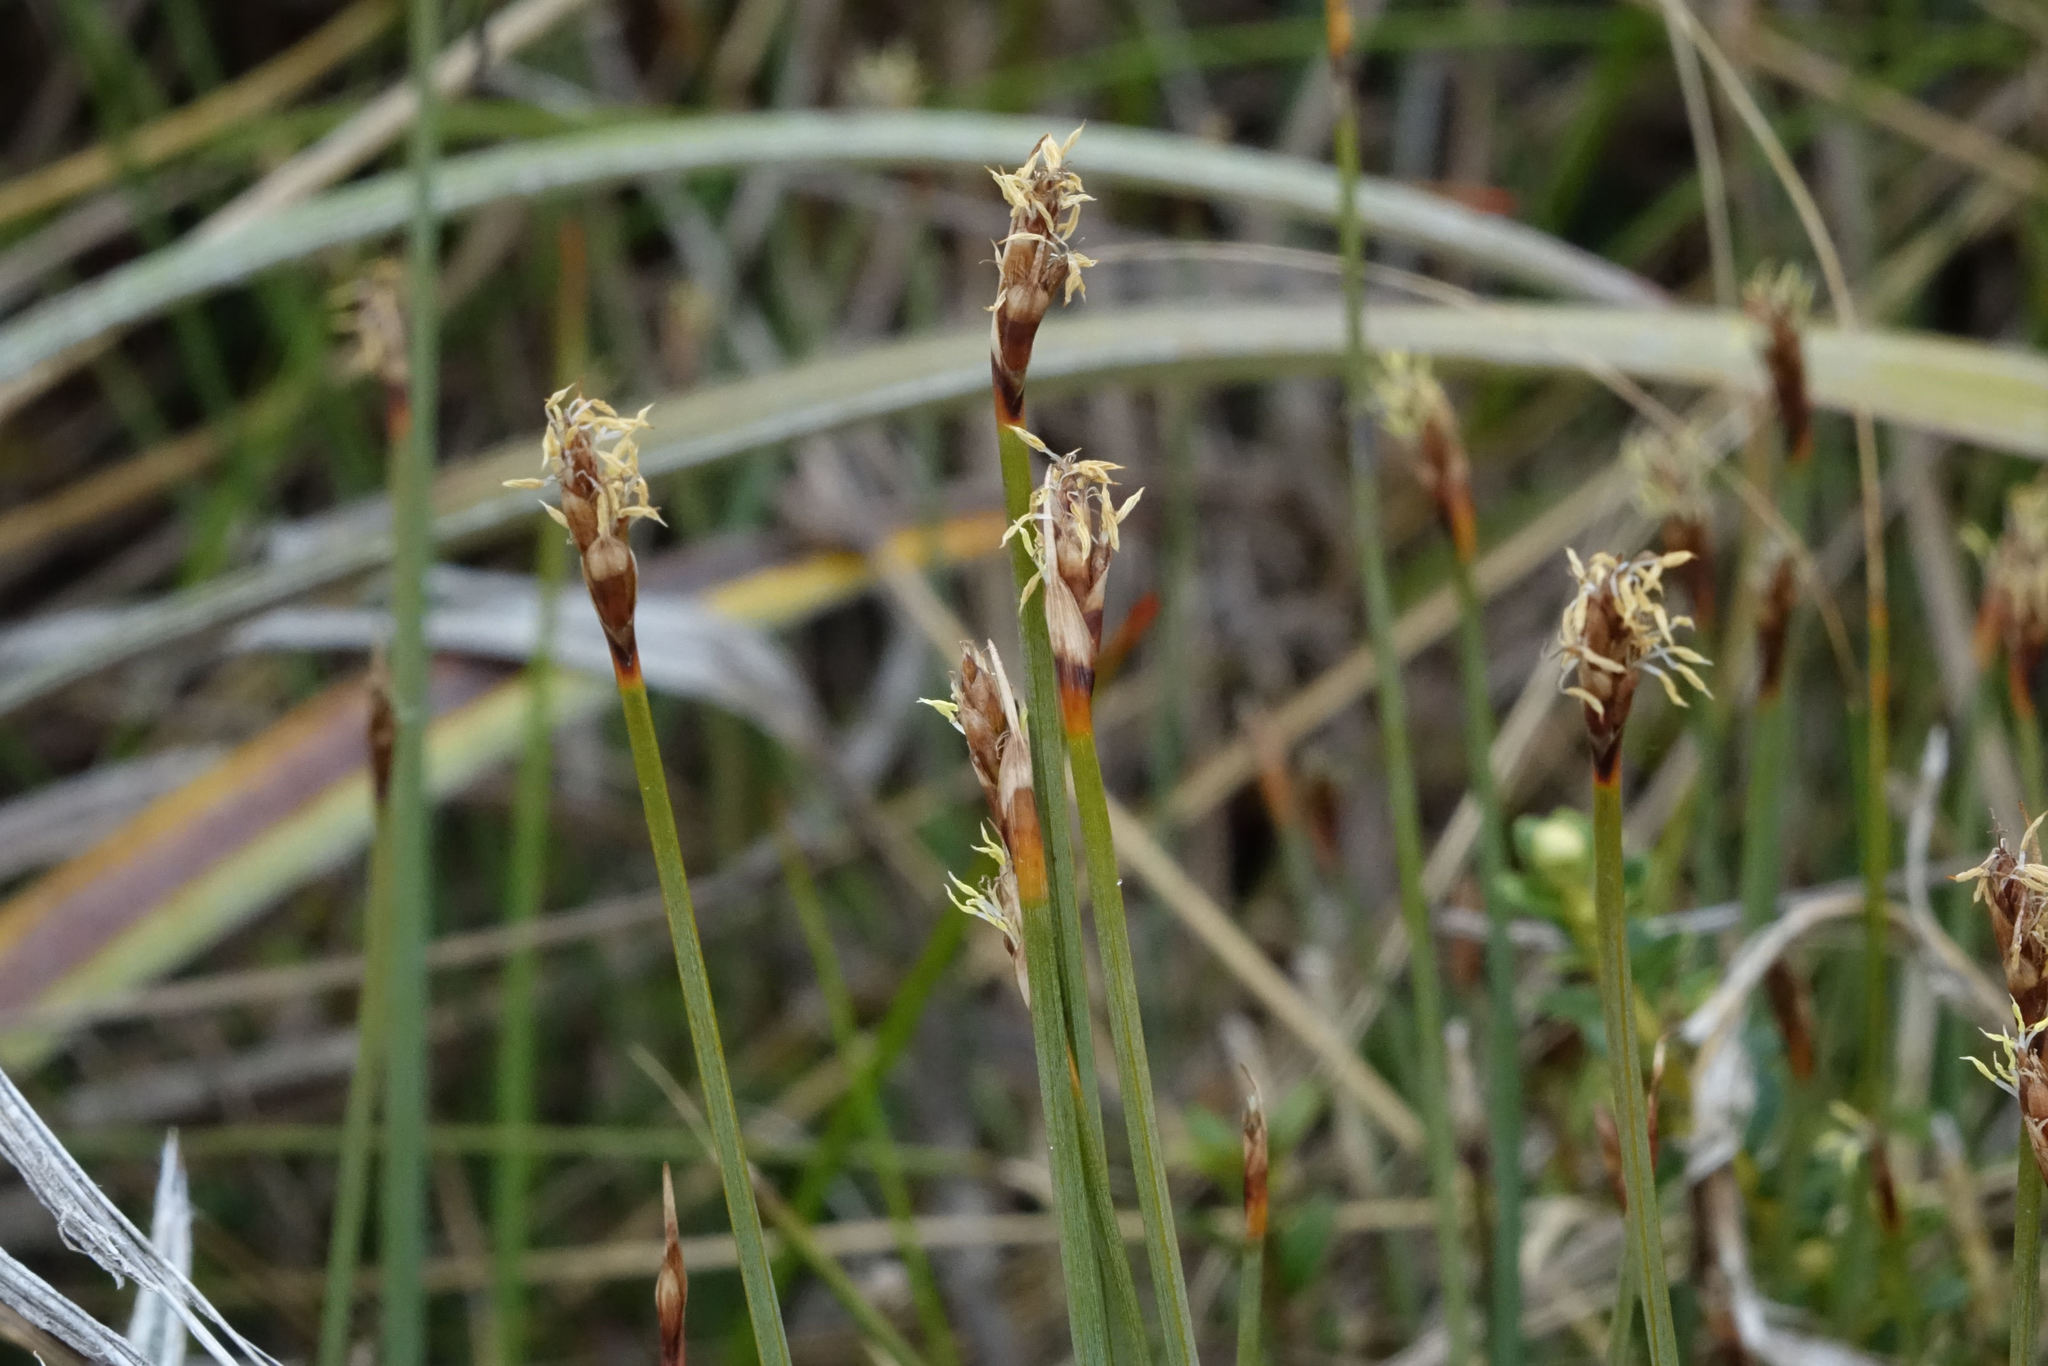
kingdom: Plantae
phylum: Tracheophyta
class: Liliopsida
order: Poales
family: Cyperaceae
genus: Lepidosperma
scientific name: Lepidosperma australe
